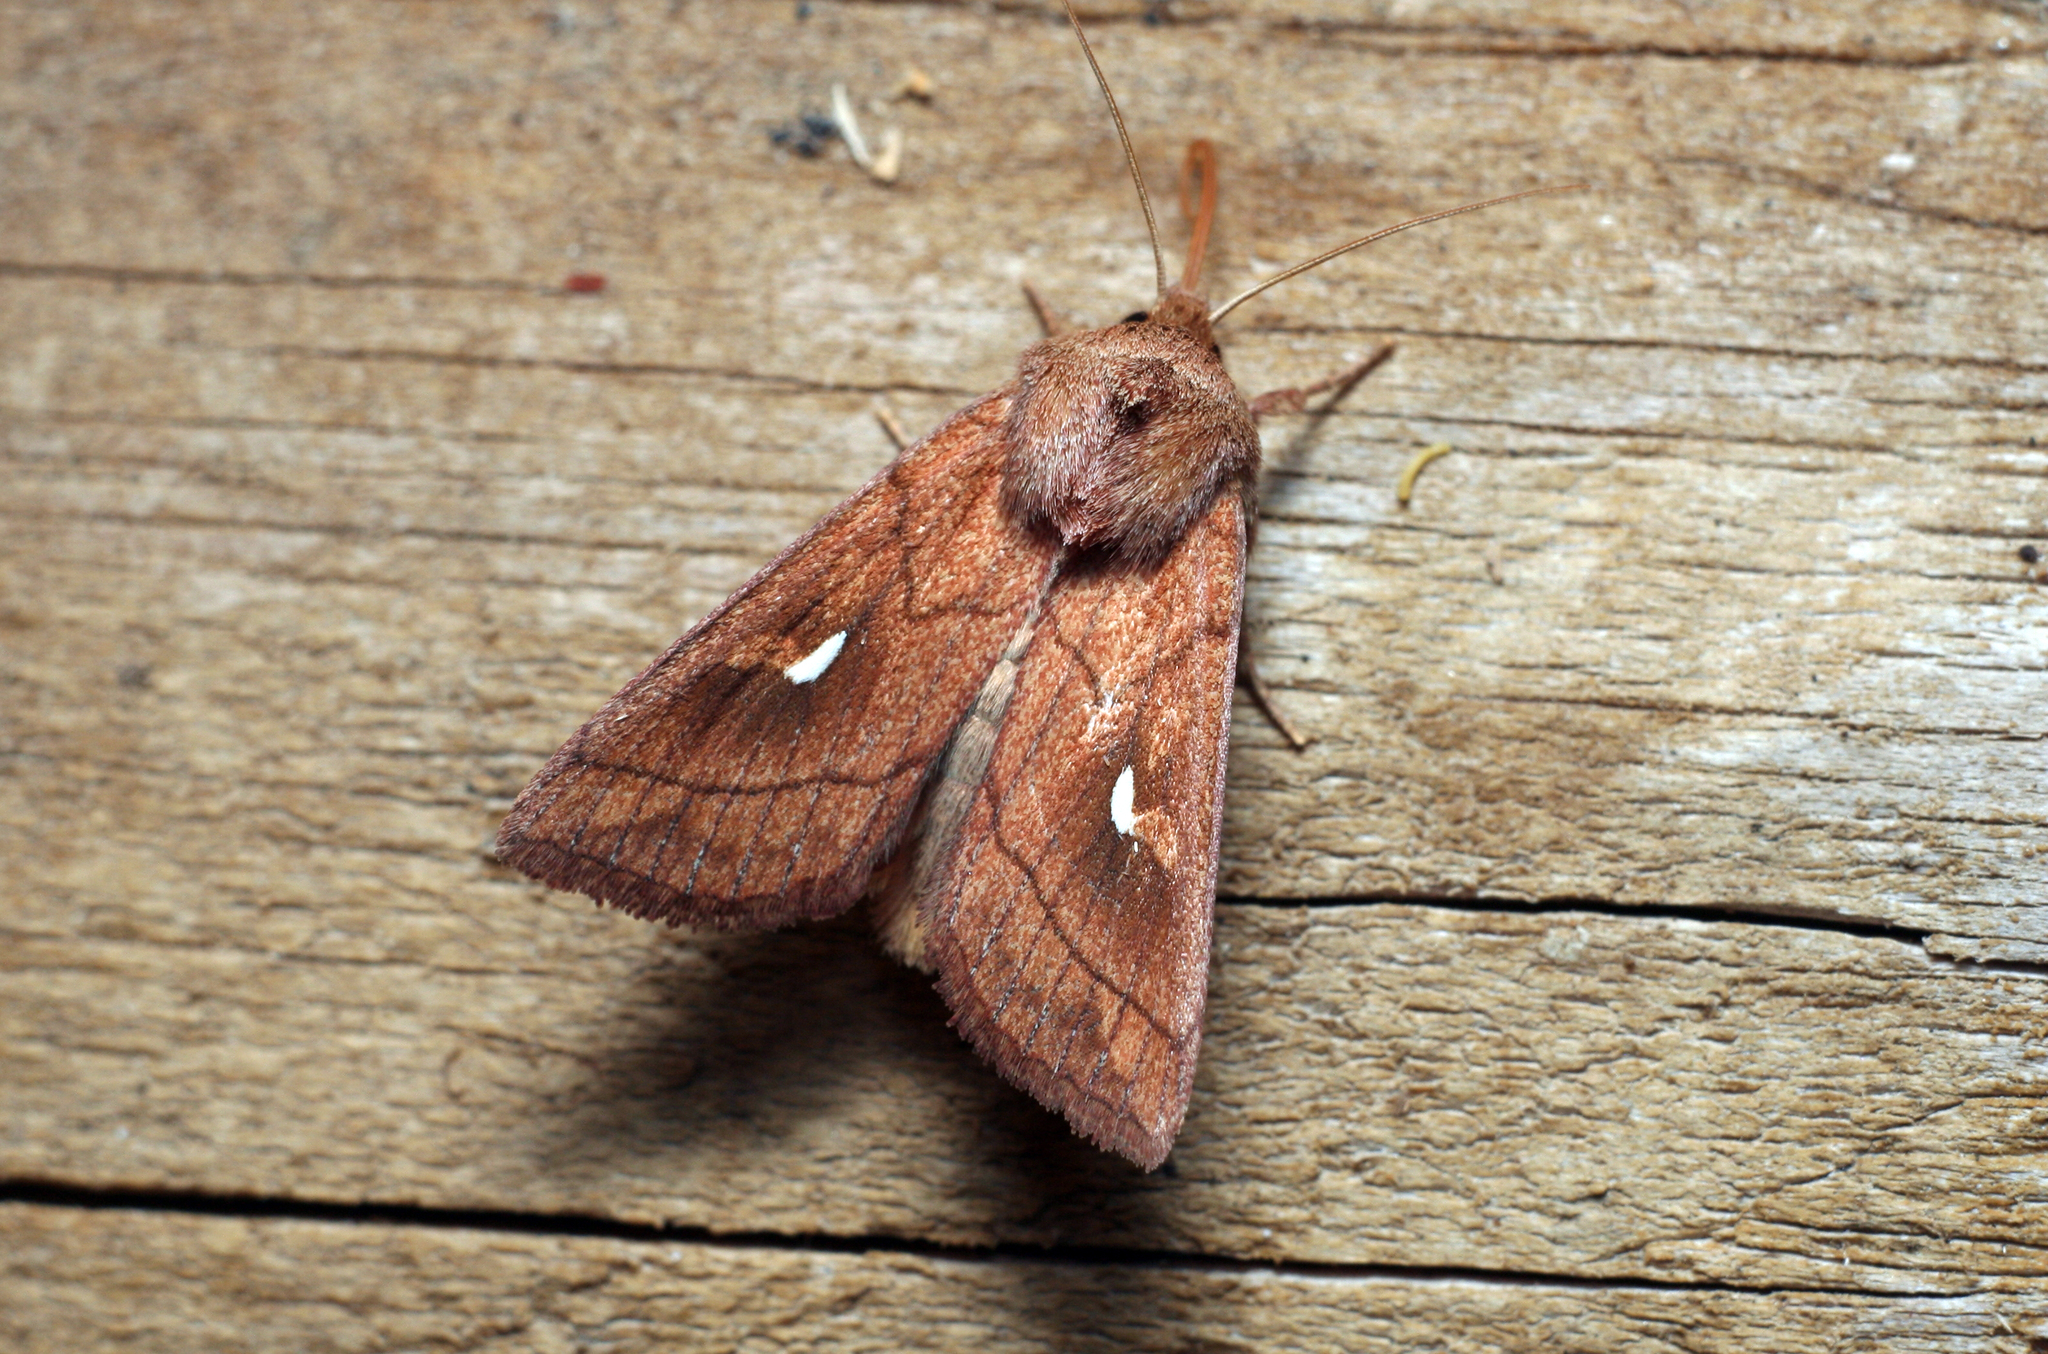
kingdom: Animalia
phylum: Arthropoda
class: Insecta
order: Lepidoptera
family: Noctuidae
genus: Mythimna
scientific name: Mythimna conigera
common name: Brown-line bright-eye
